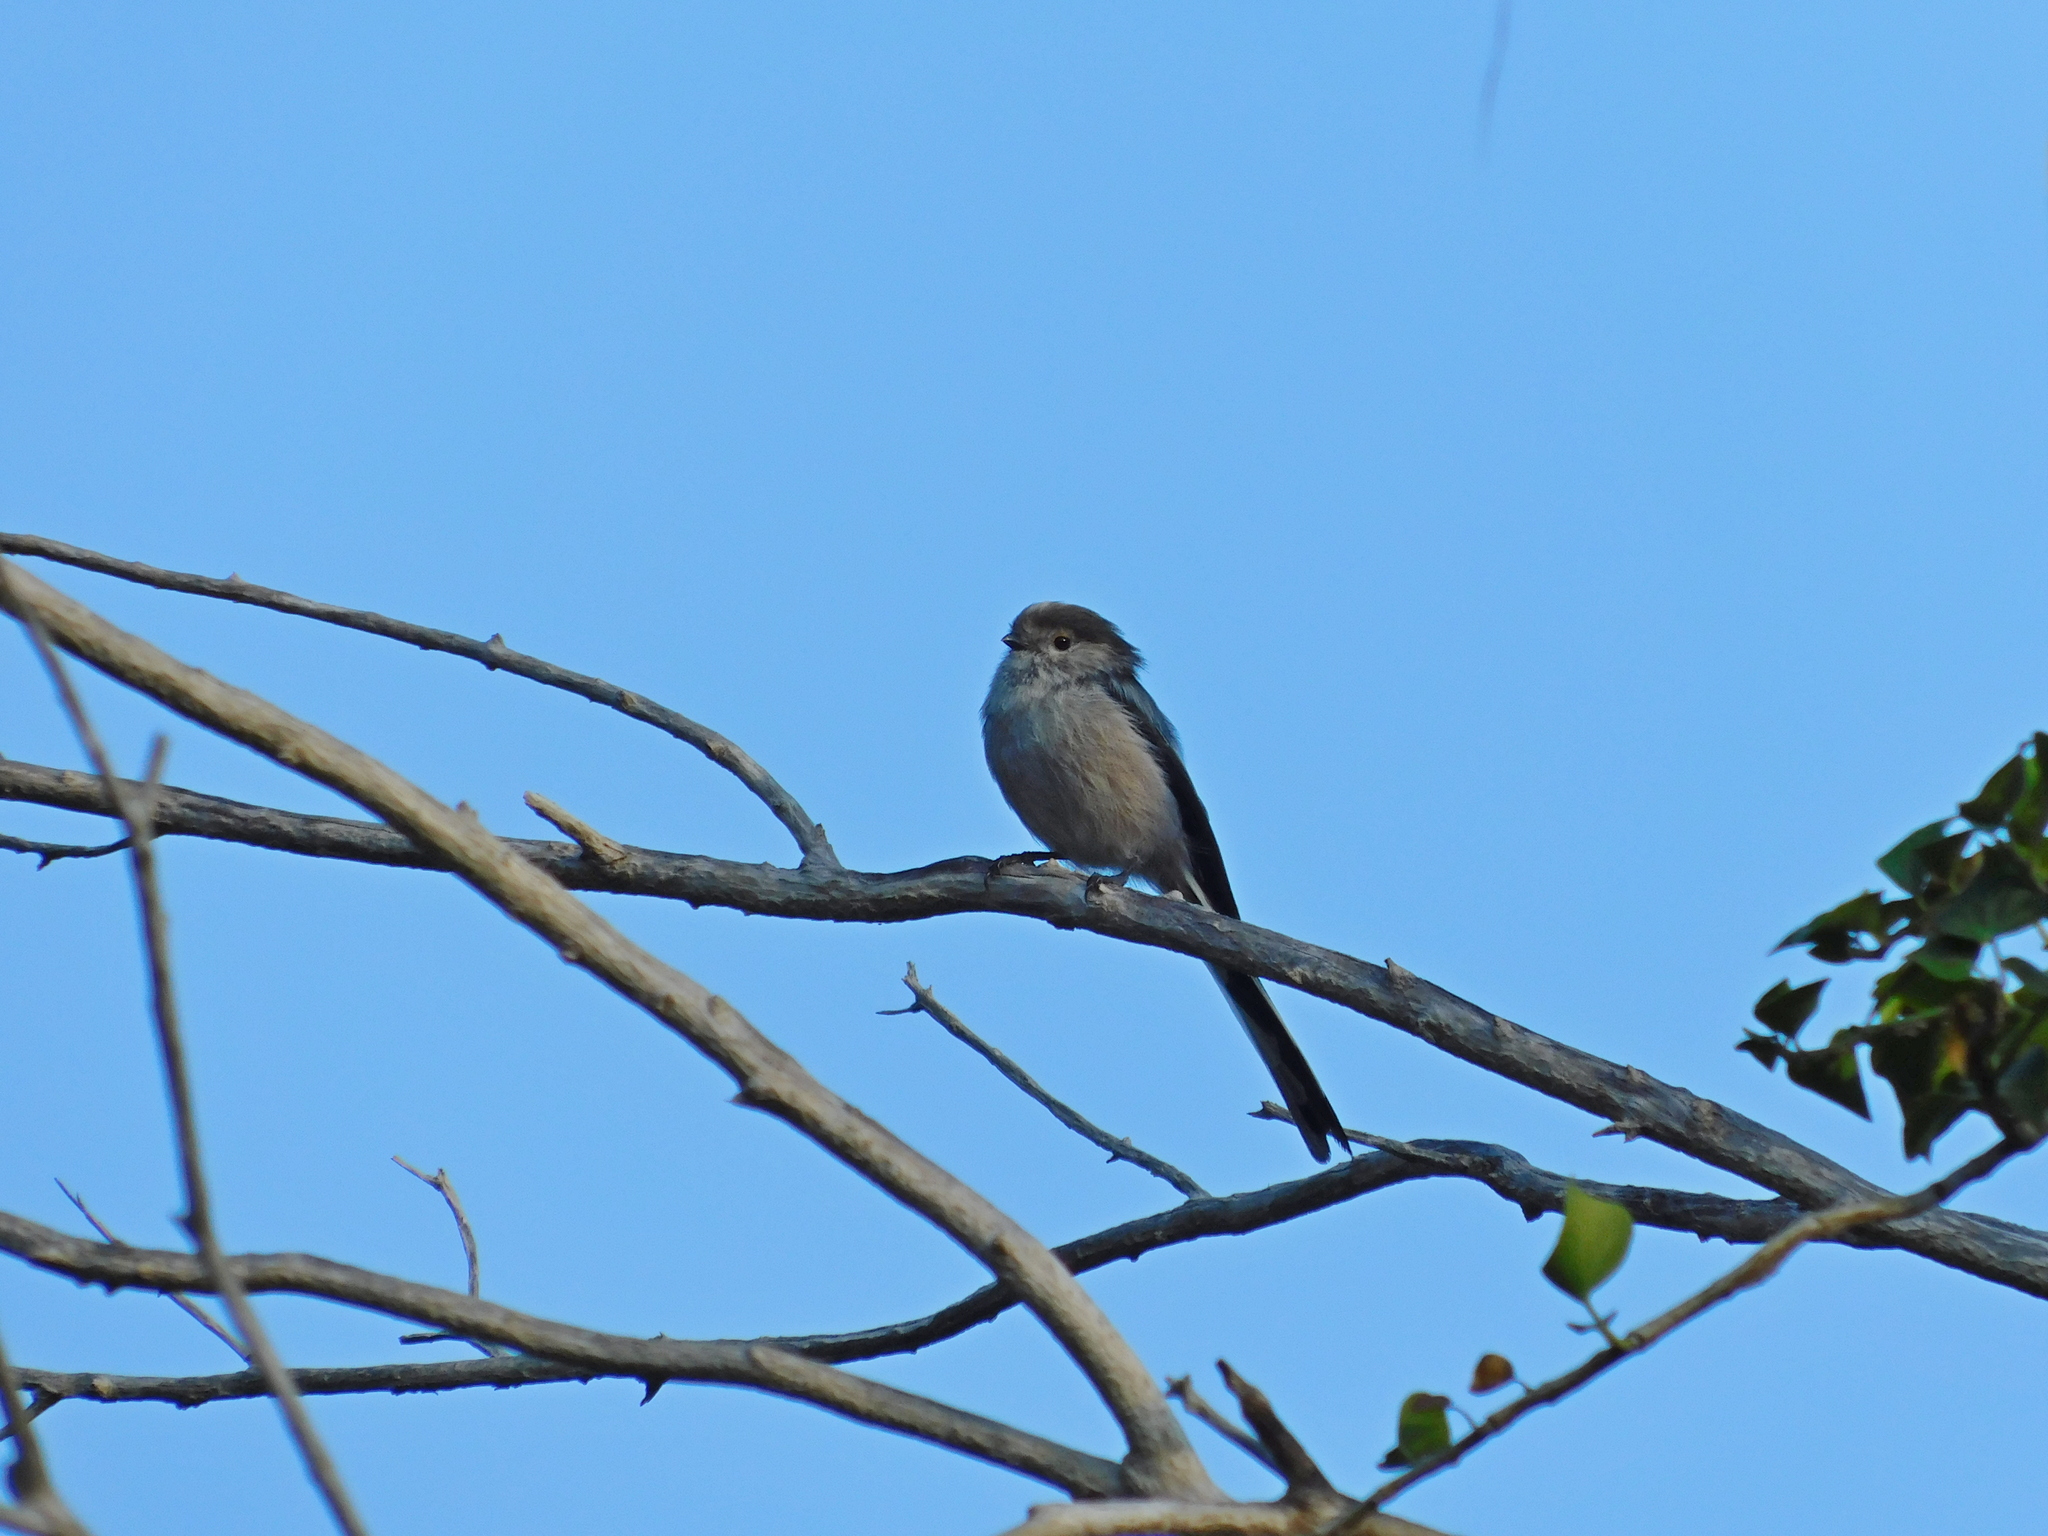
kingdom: Animalia
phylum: Chordata
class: Aves
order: Passeriformes
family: Aegithalidae
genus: Aegithalos
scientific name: Aegithalos caudatus
